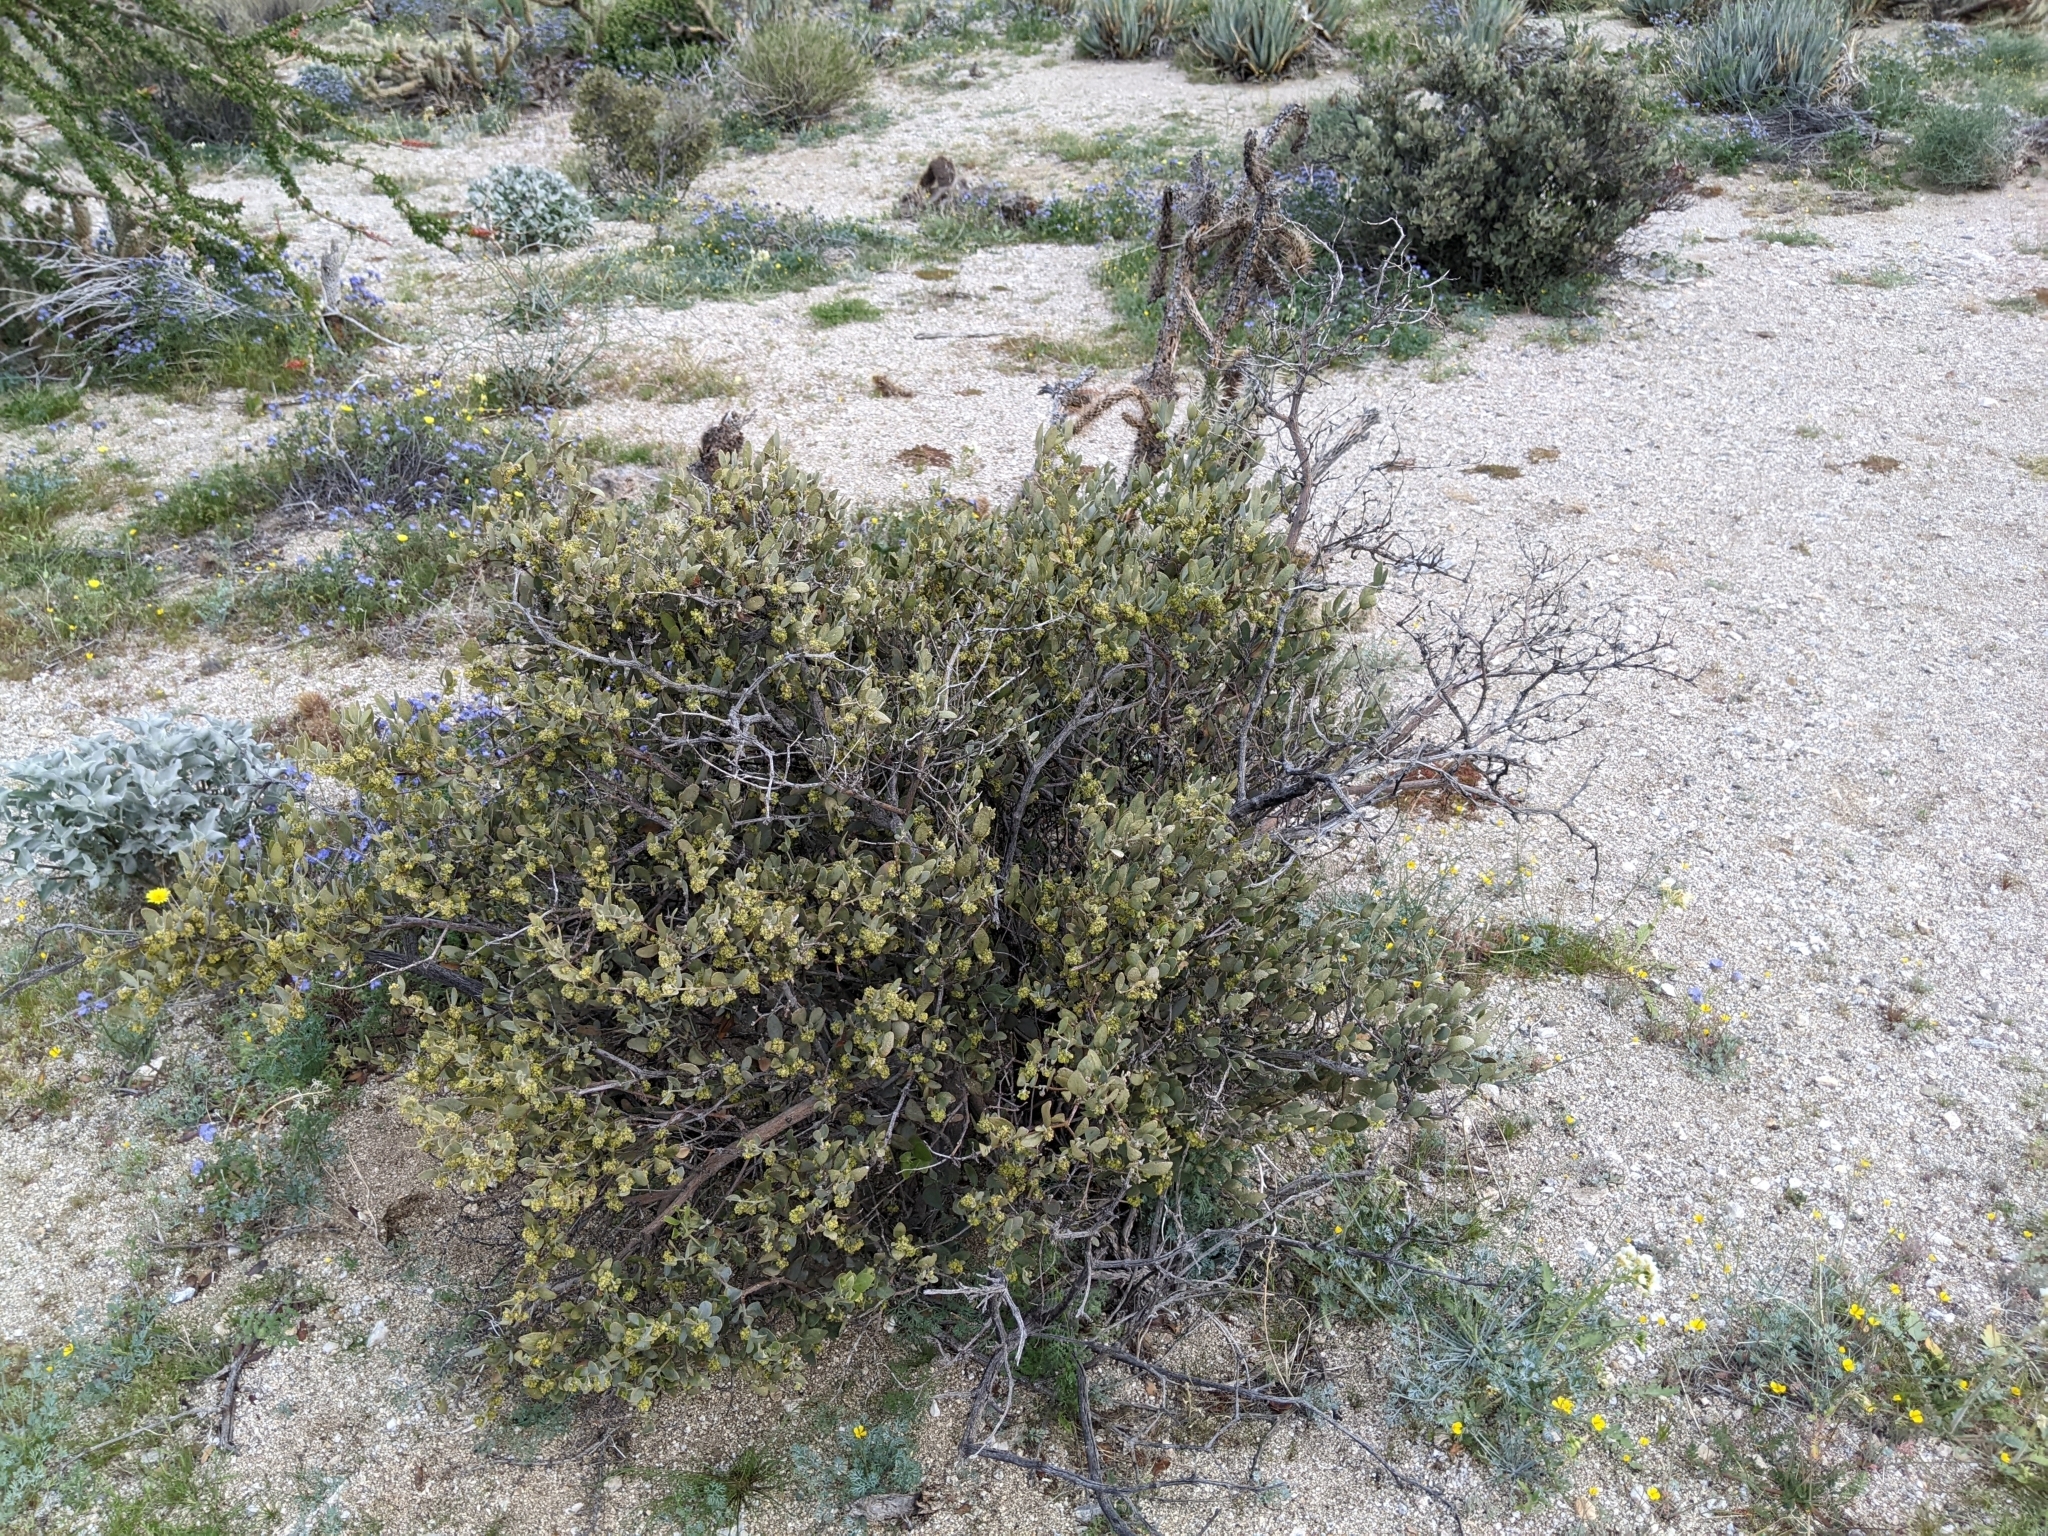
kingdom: Plantae
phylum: Tracheophyta
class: Magnoliopsida
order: Caryophyllales
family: Simmondsiaceae
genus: Simmondsia
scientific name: Simmondsia chinensis
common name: Jojoba
